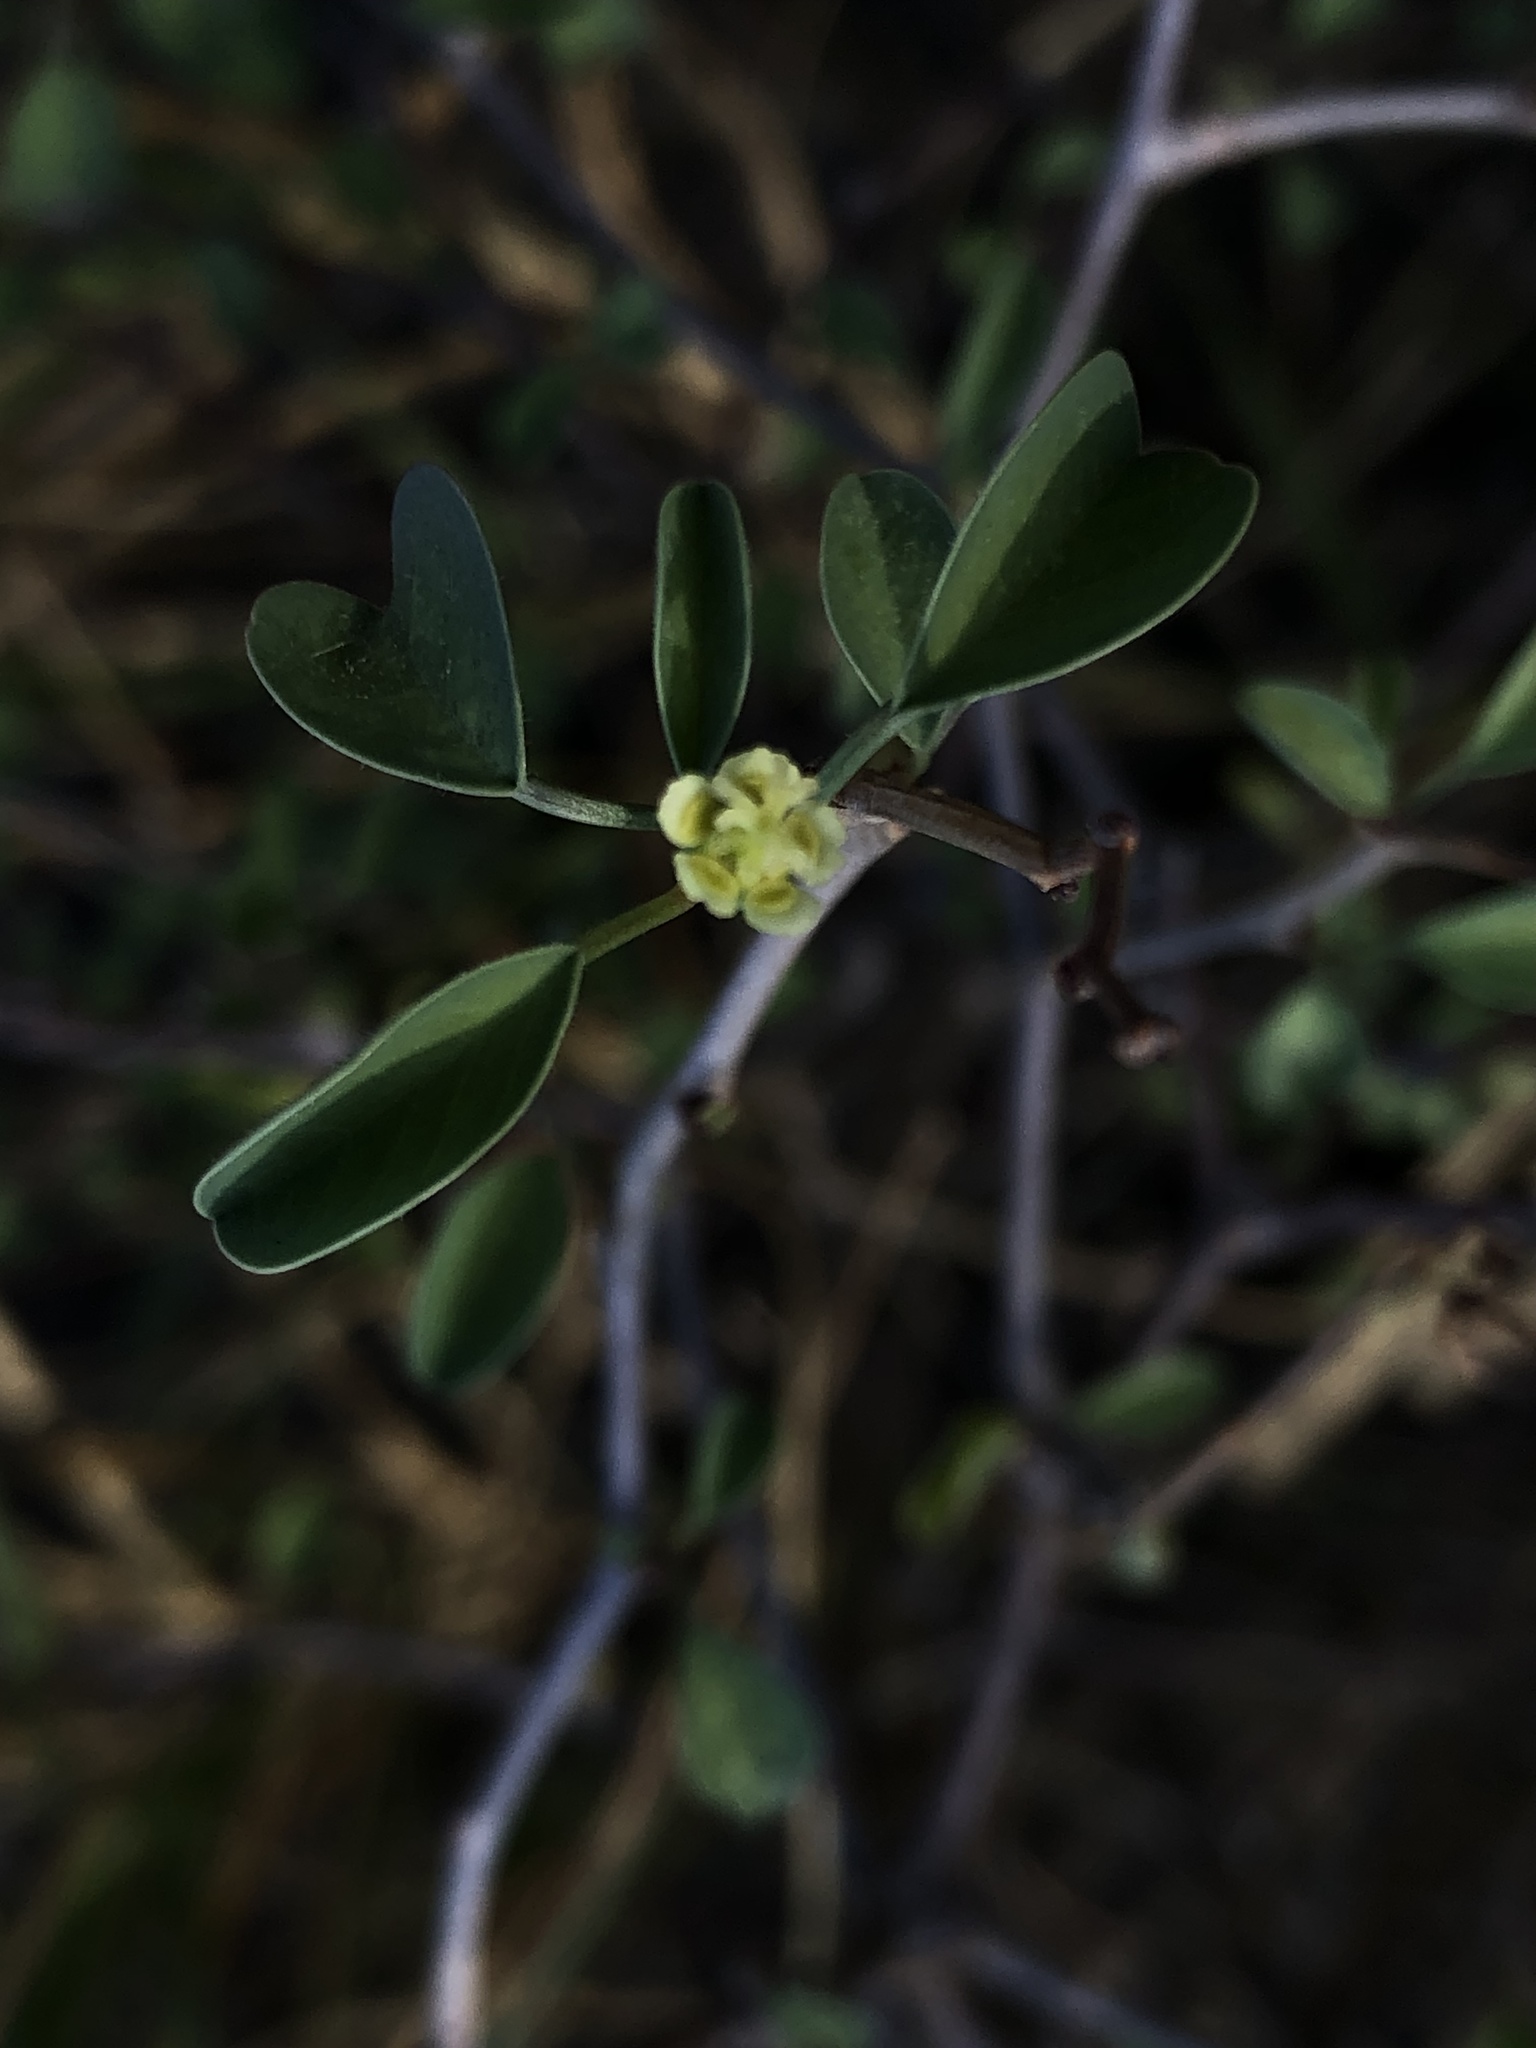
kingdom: Plantae
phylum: Tracheophyta
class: Magnoliopsida
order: Malpighiales
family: Euphorbiaceae
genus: Euphorbia
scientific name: Euphorbia californica
